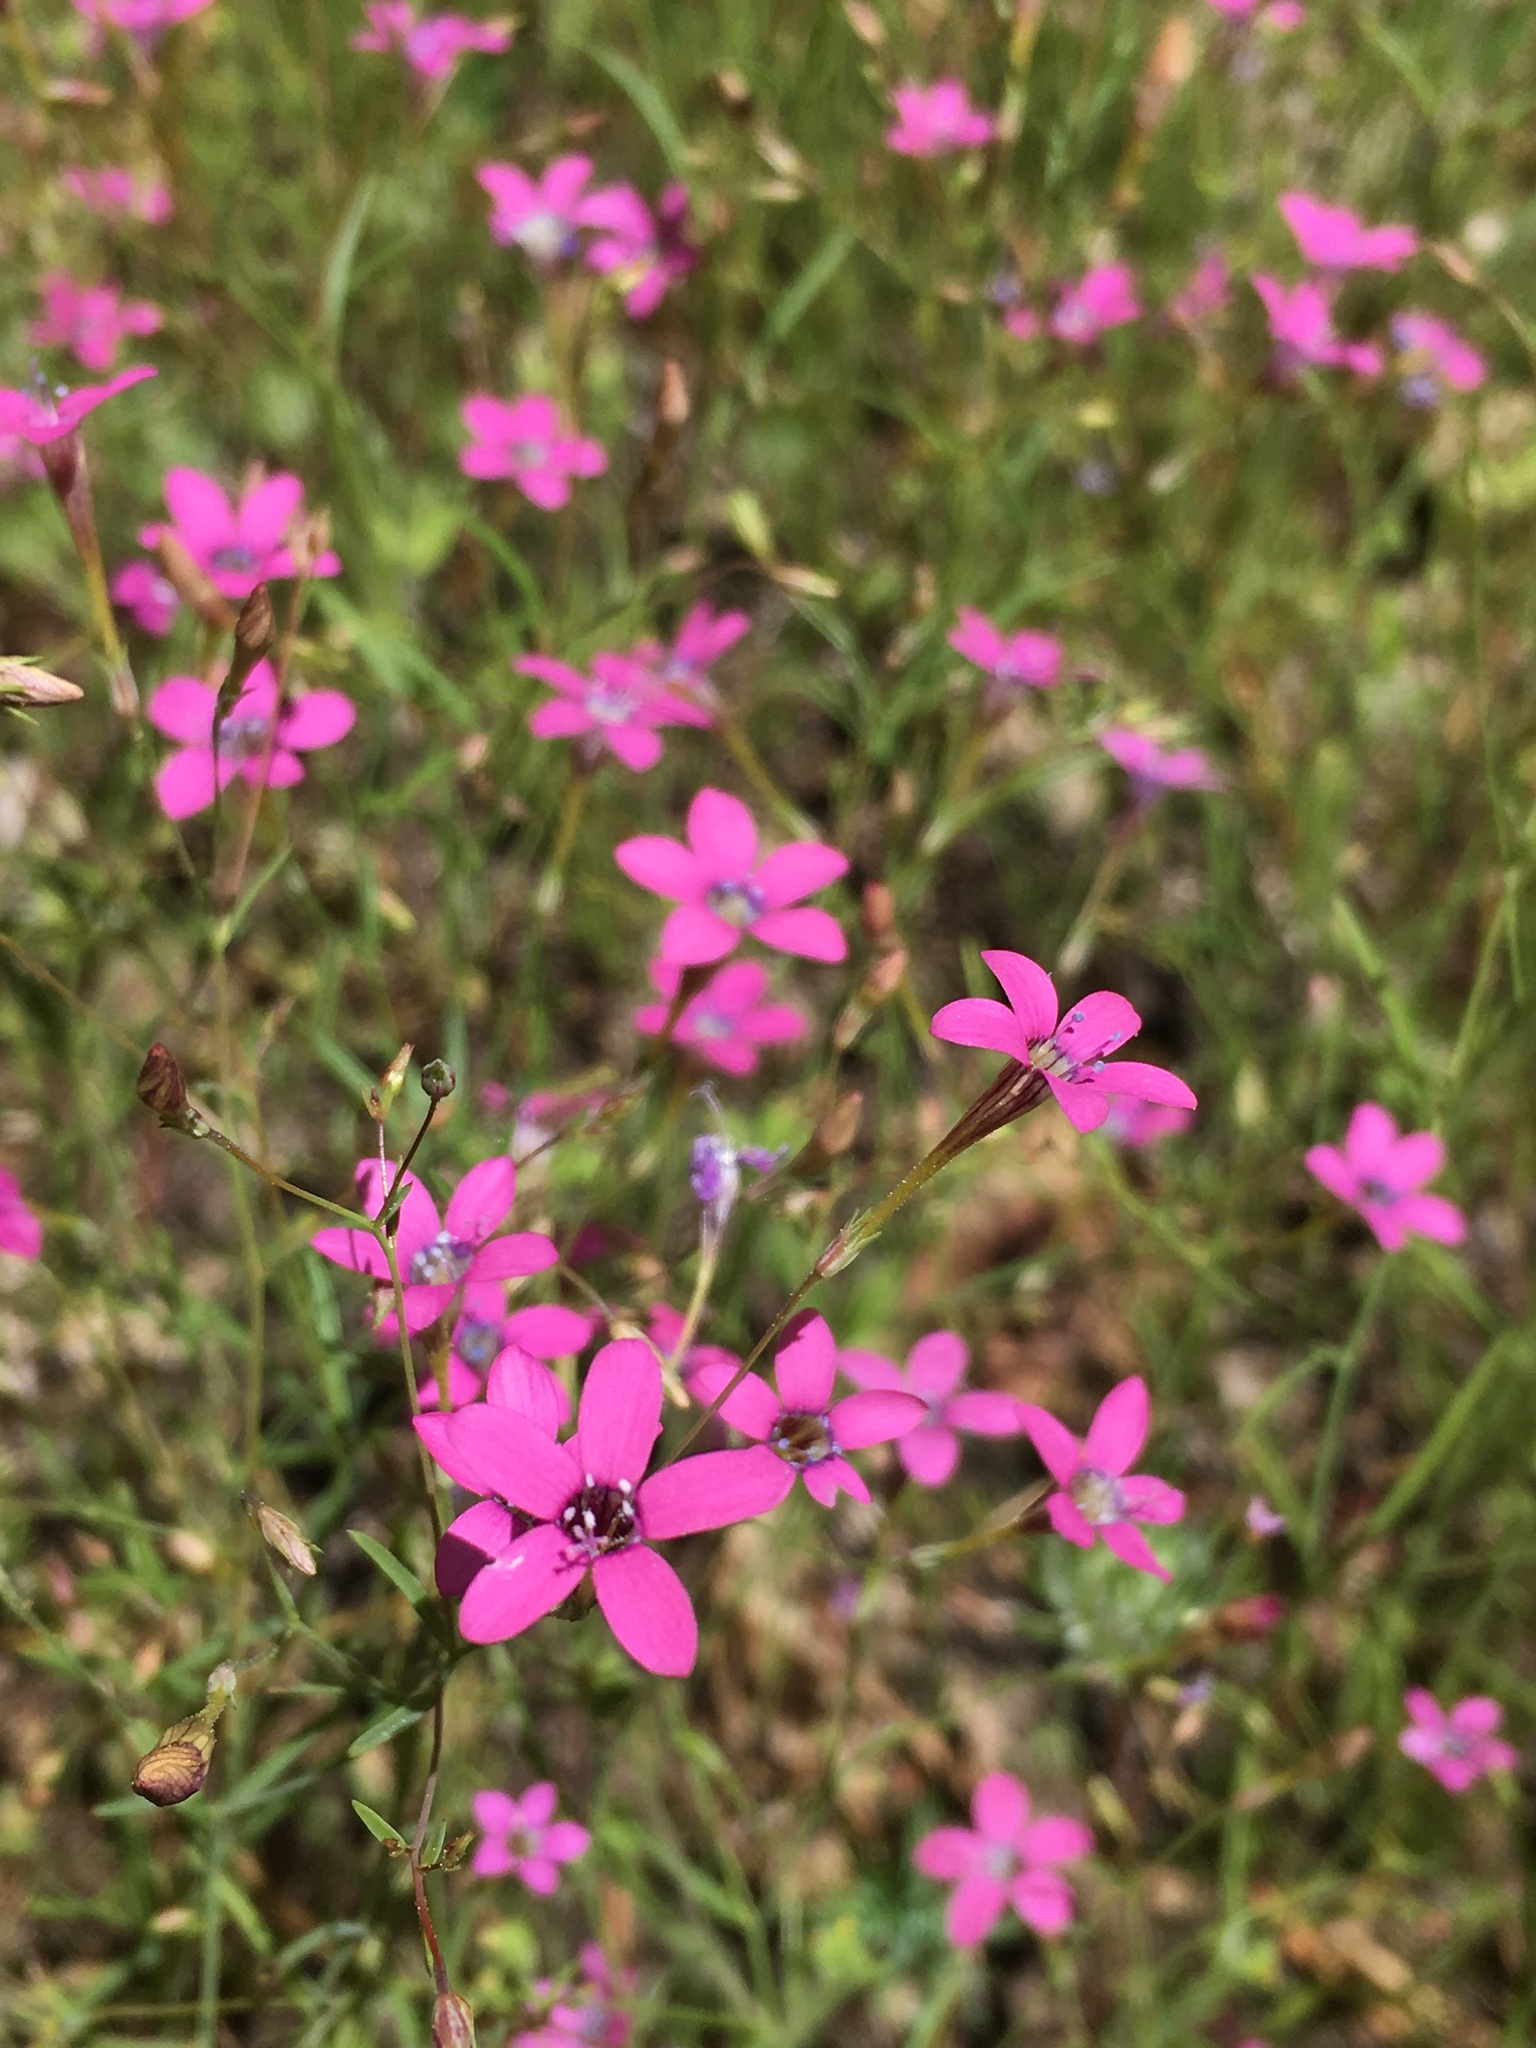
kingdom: Plantae
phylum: Tracheophyta
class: Magnoliopsida
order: Ericales
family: Polemoniaceae
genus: Navarretia
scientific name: Navarretia leptalea
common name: Bridges' pincushionplant
